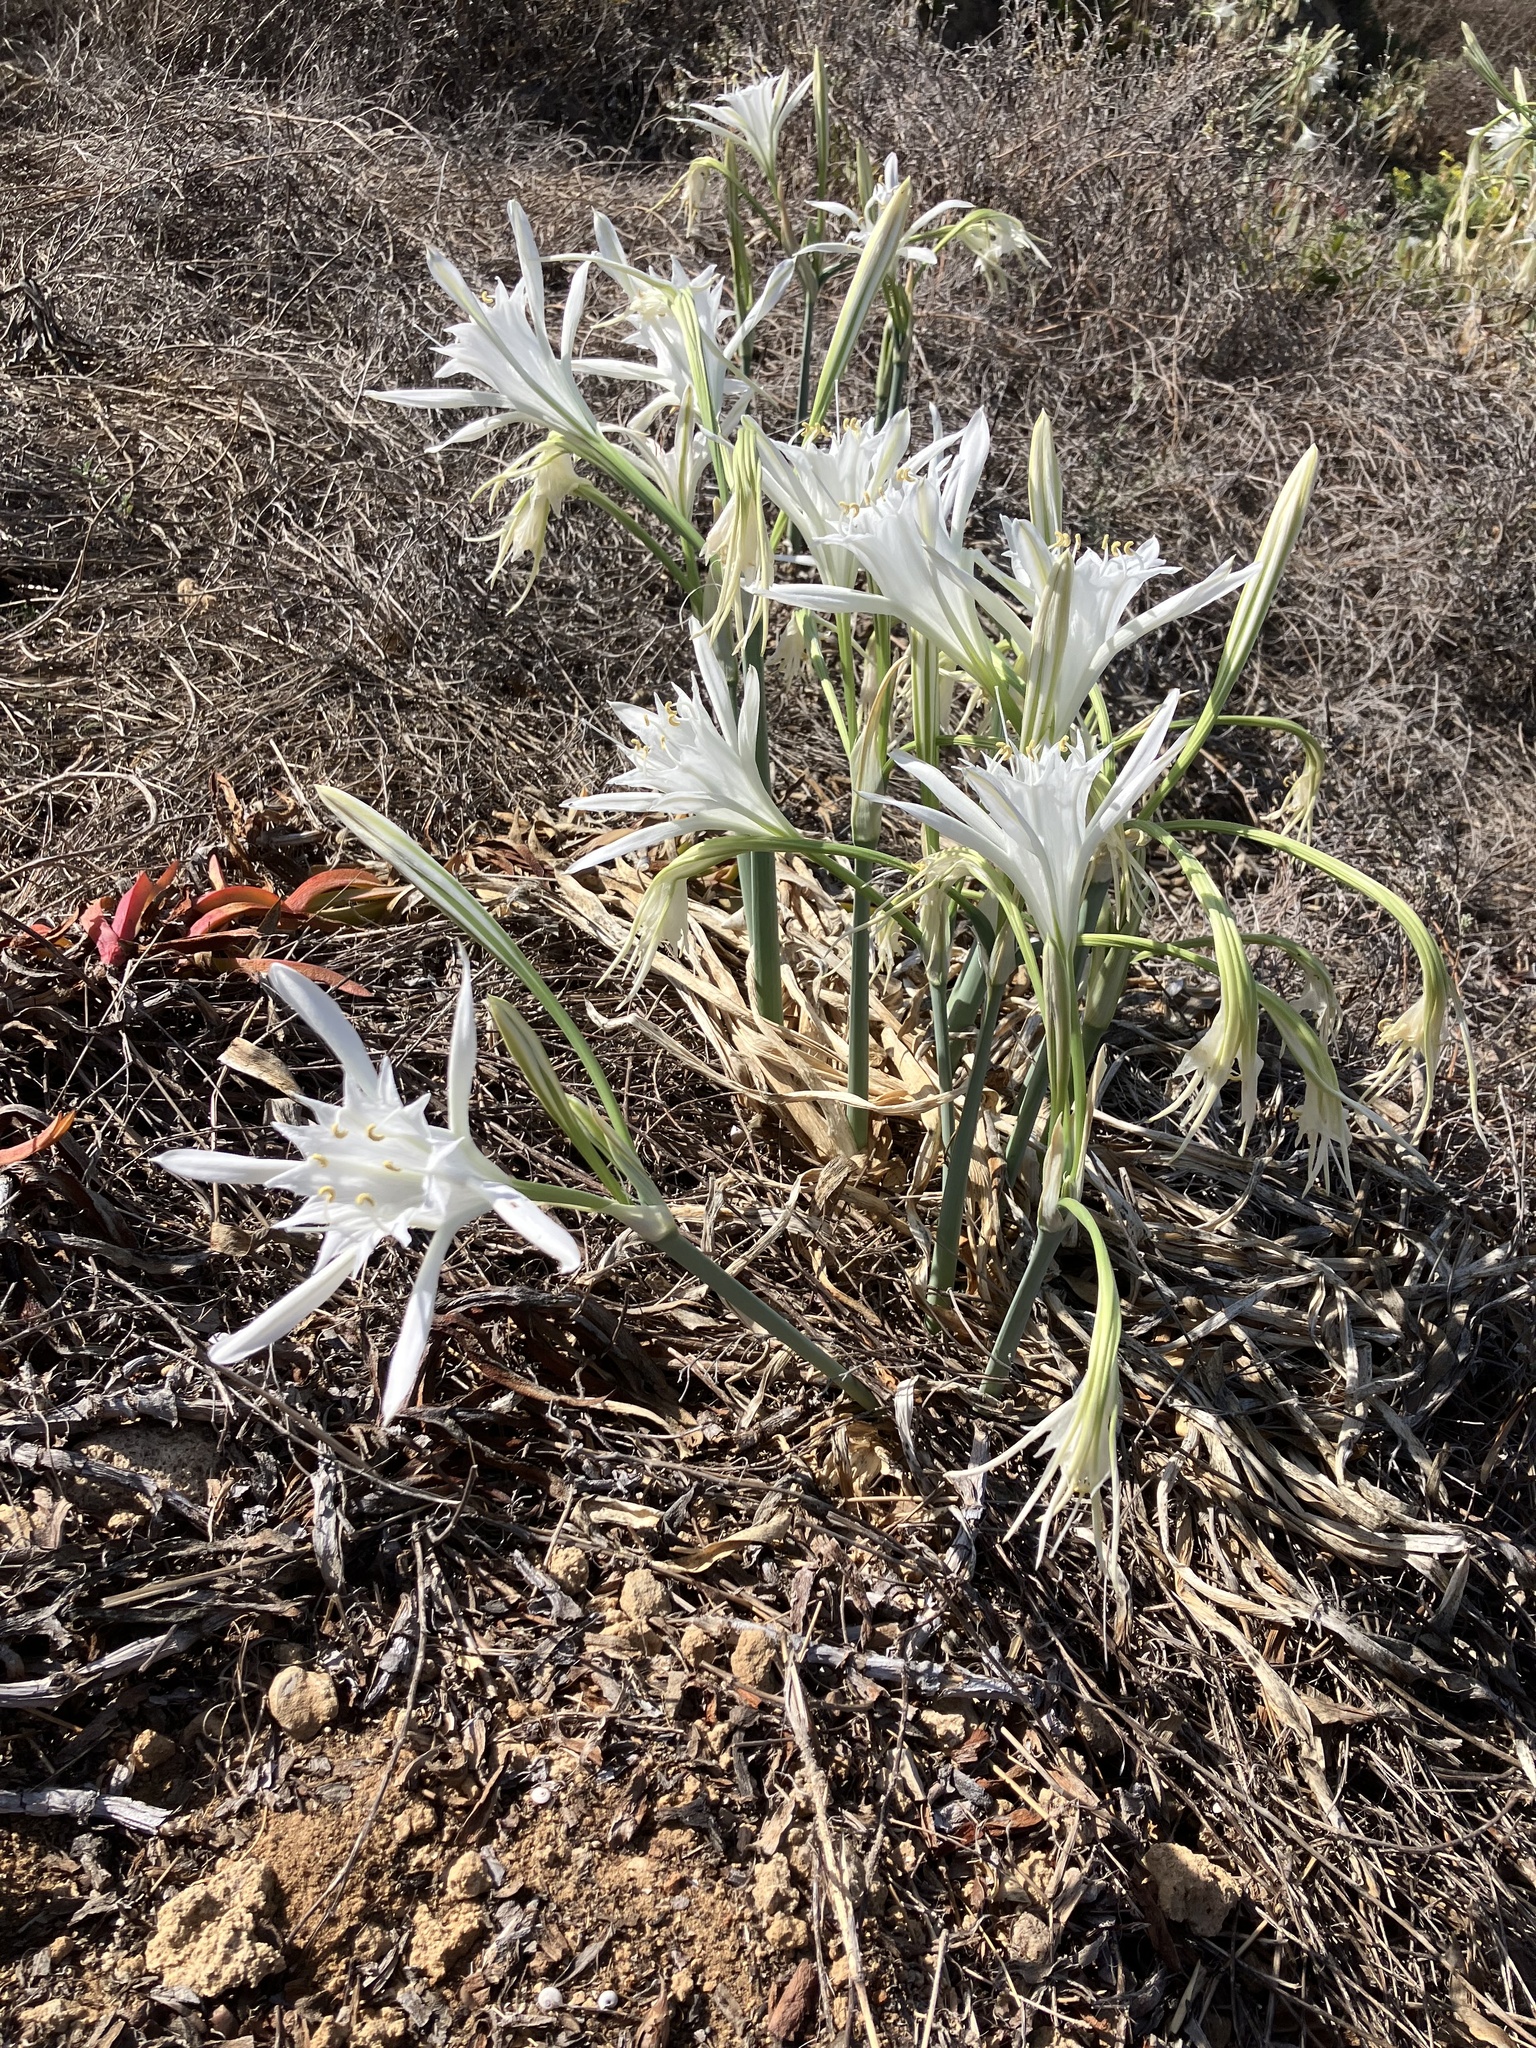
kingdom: Plantae
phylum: Tracheophyta
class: Liliopsida
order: Asparagales
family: Amaryllidaceae
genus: Pancratium
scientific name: Pancratium maritimum
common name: Sea-daffodil
